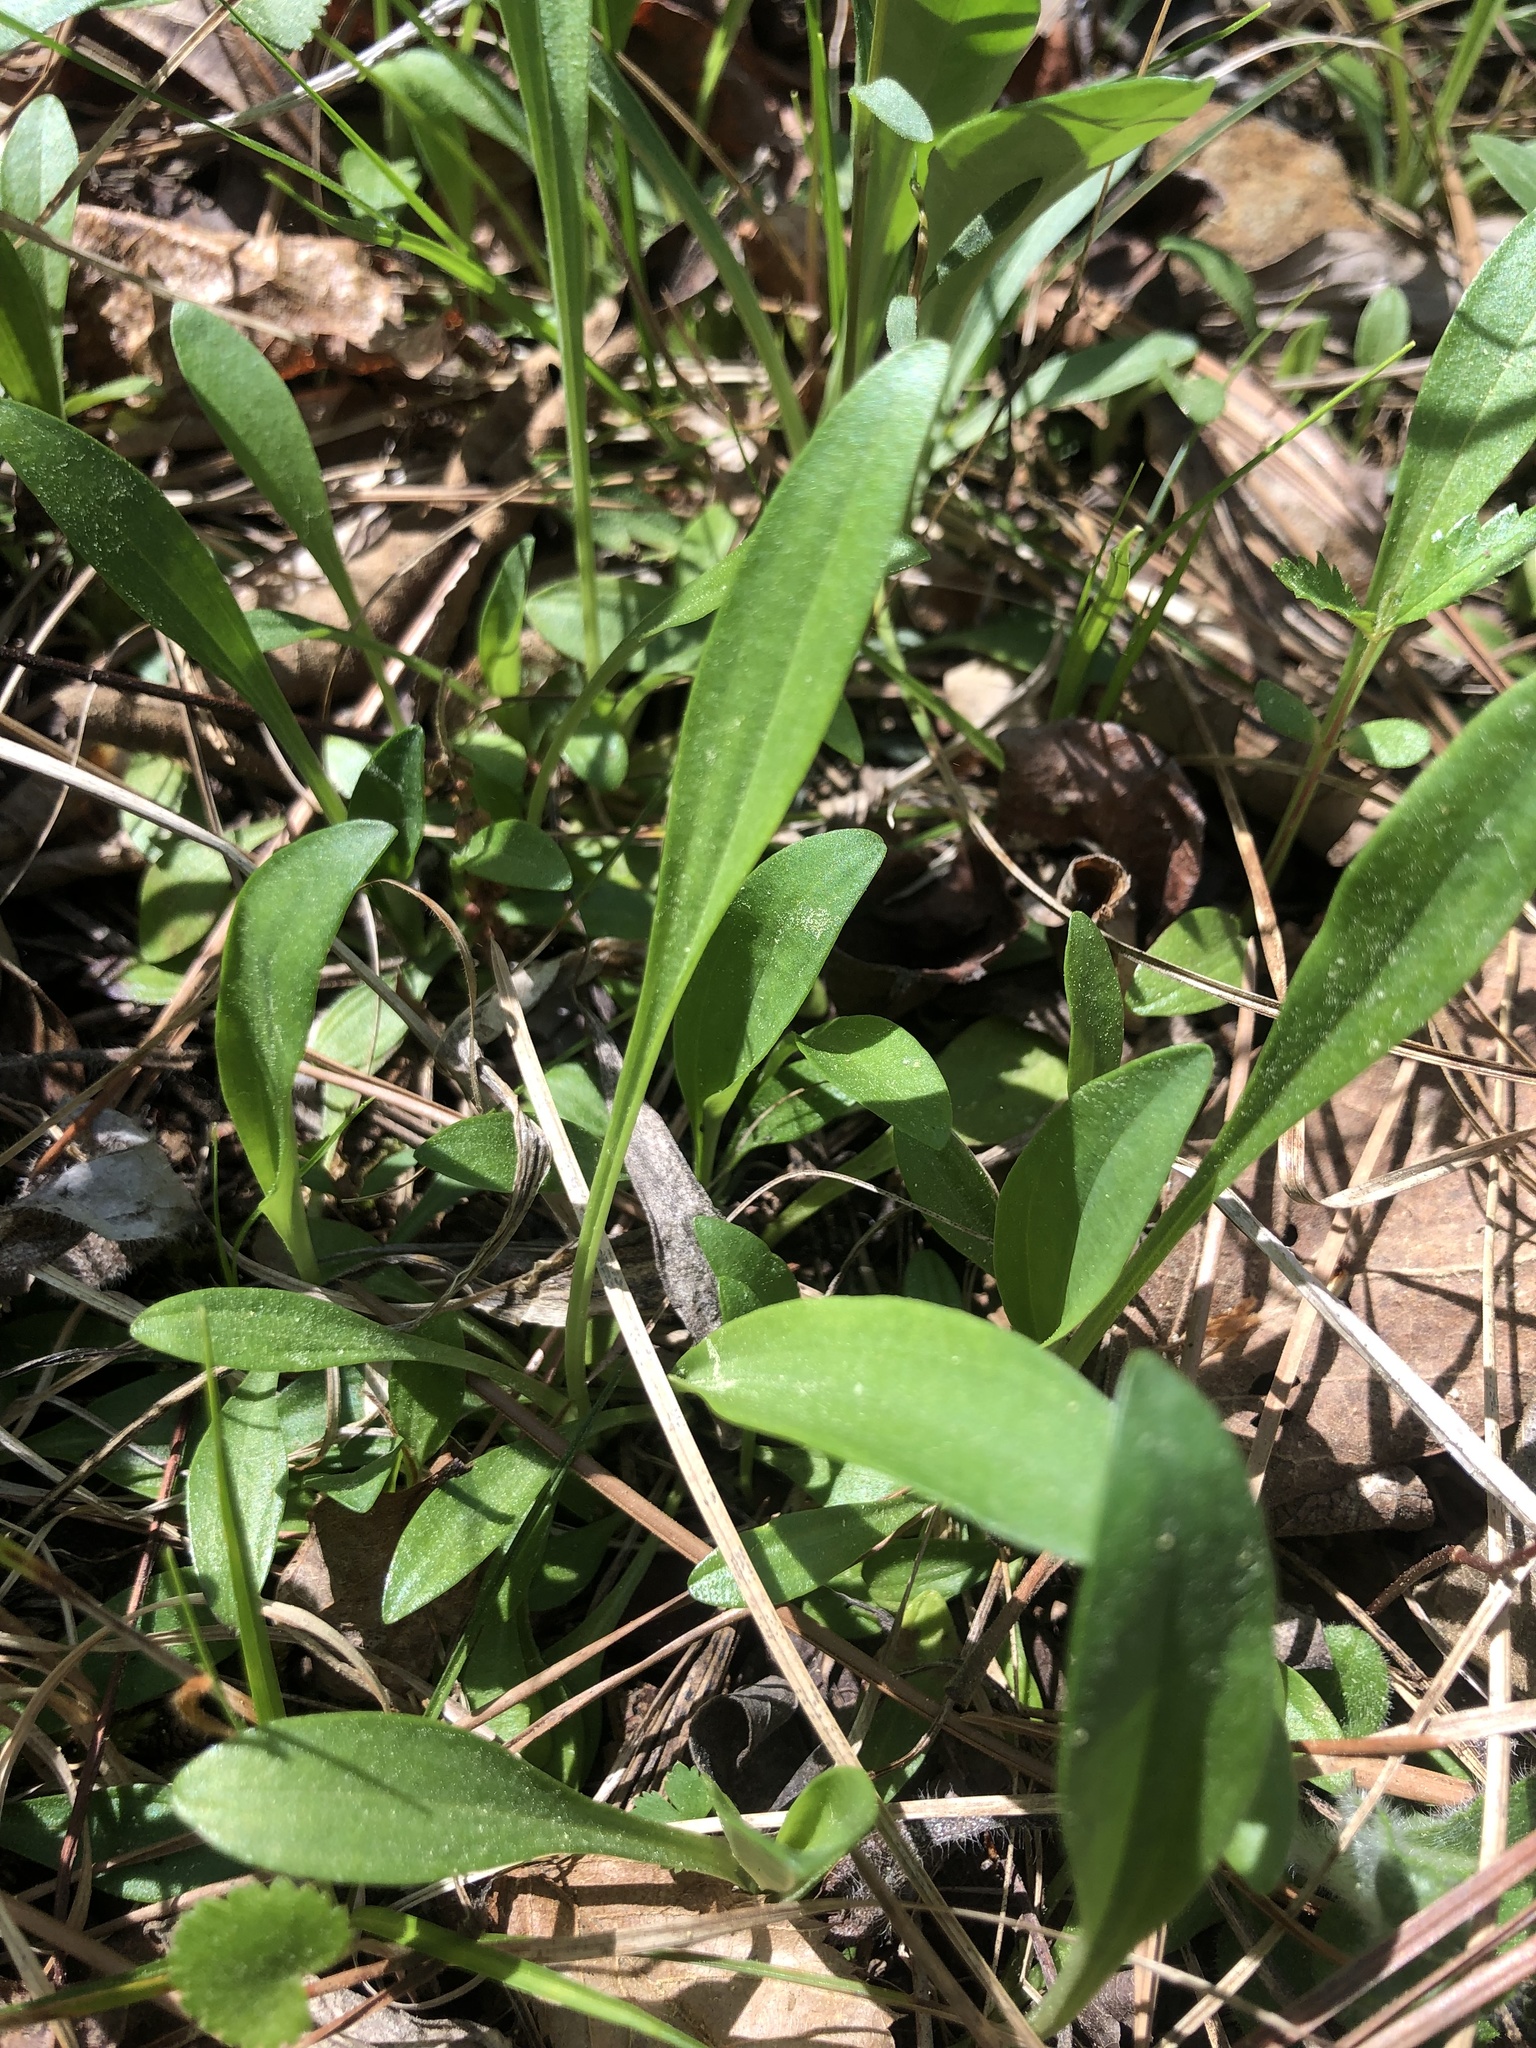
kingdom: Plantae
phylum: Tracheophyta
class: Magnoliopsida
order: Asterales
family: Asteraceae
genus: Marshallia
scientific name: Marshallia obovata
